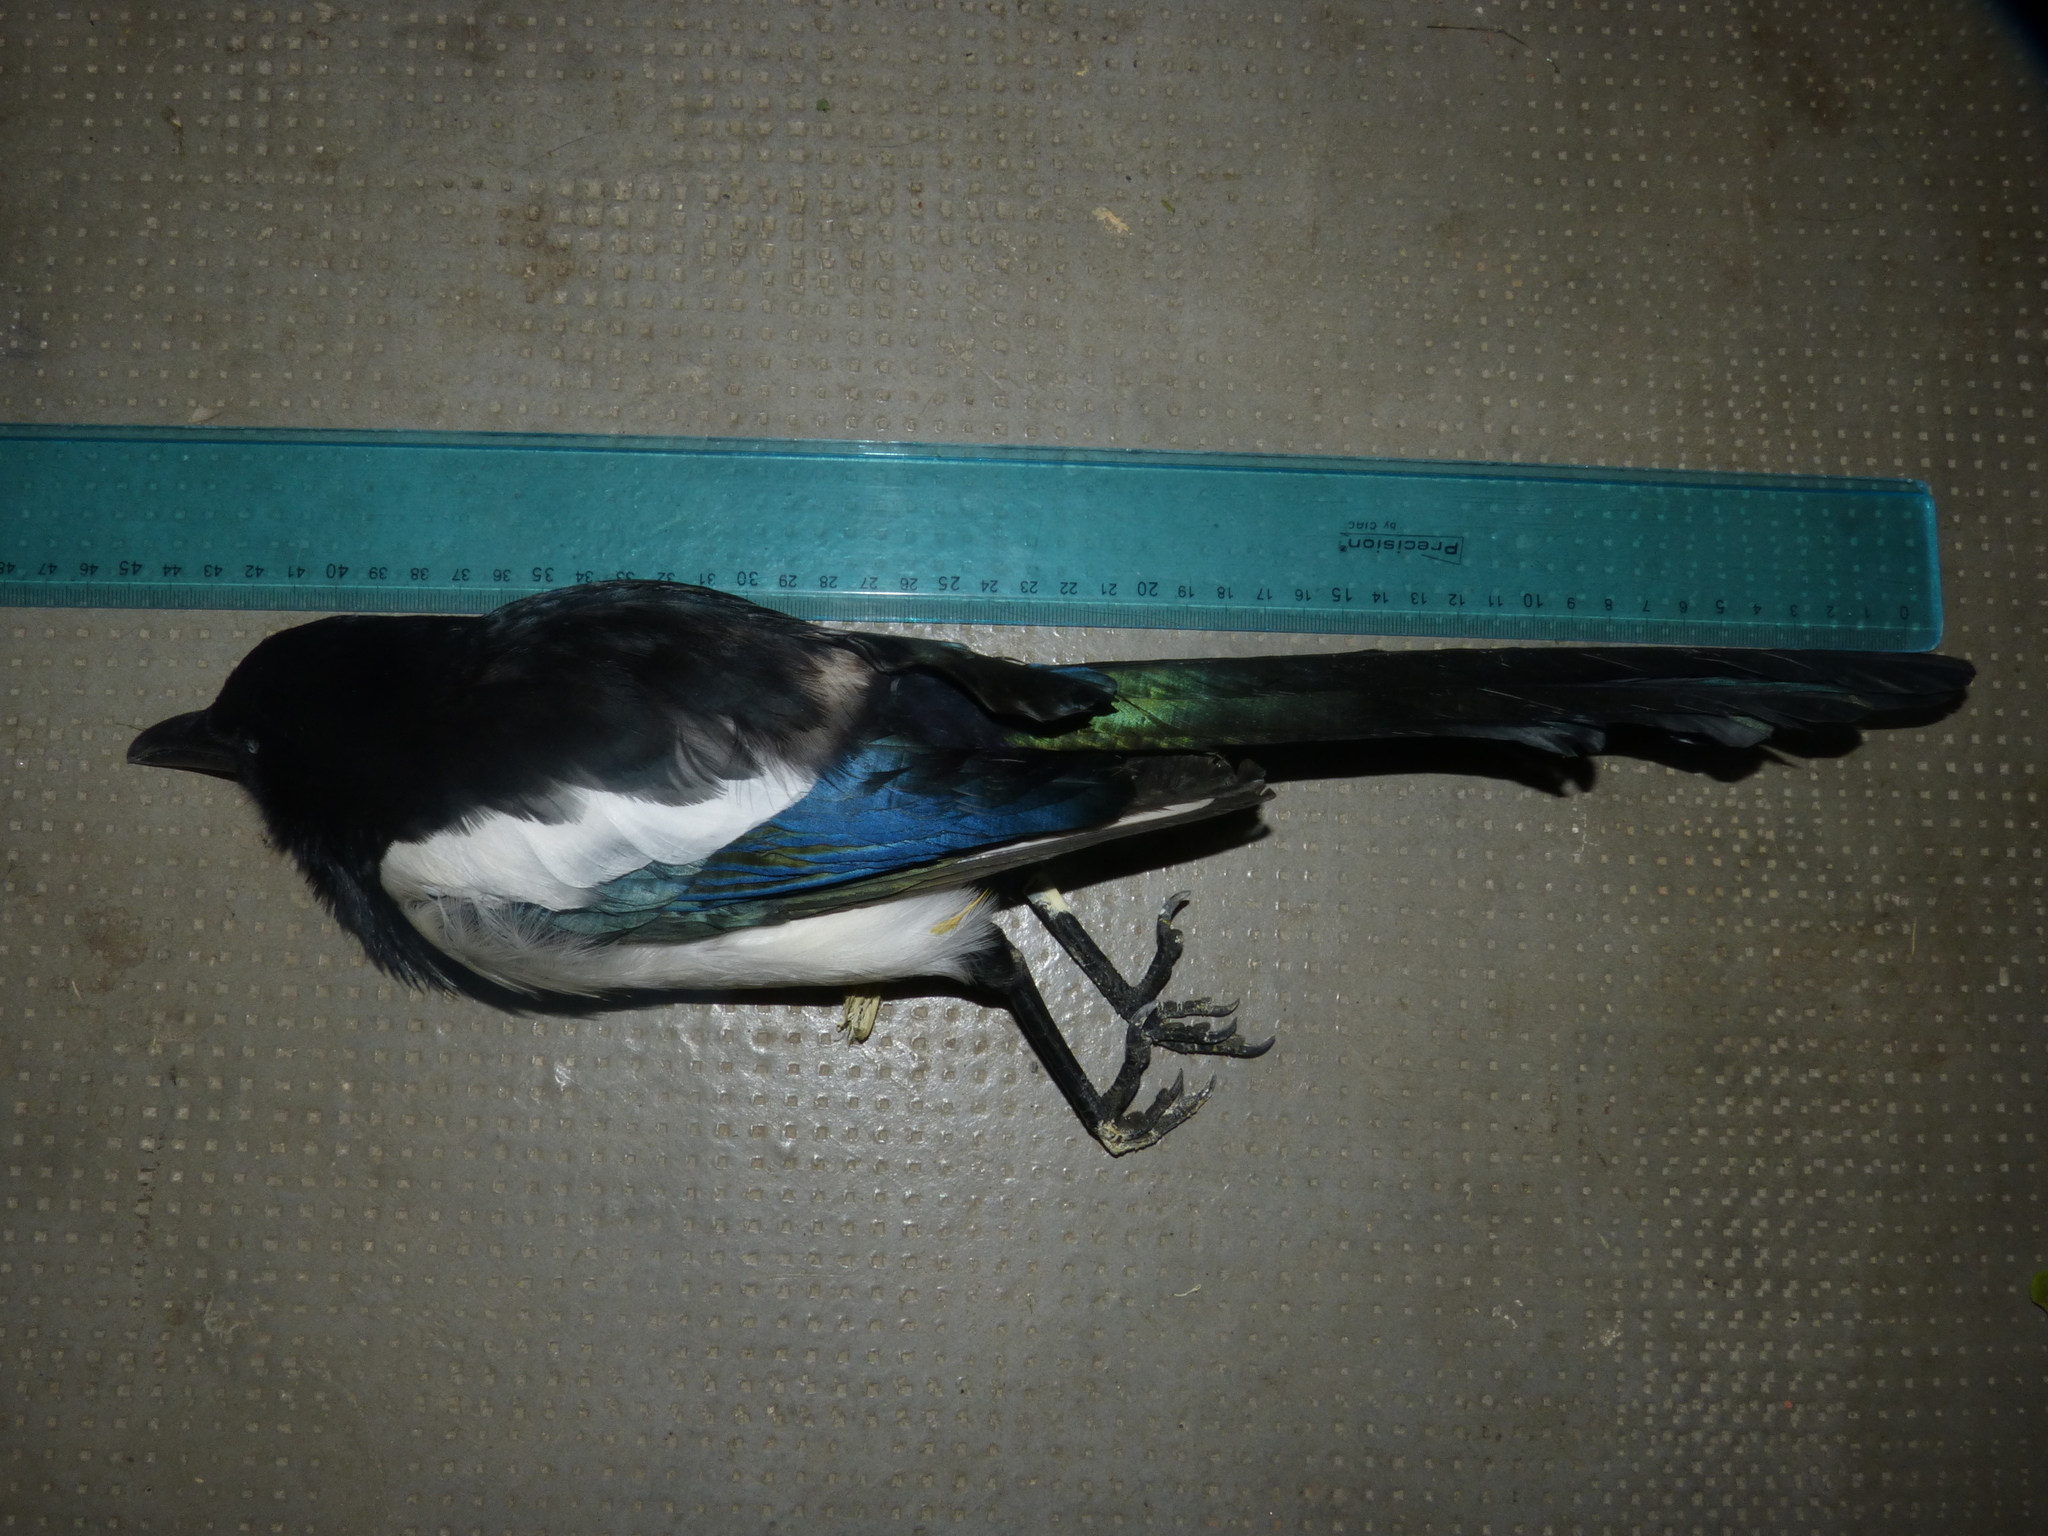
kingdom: Animalia
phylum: Chordata
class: Aves
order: Passeriformes
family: Corvidae
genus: Pica
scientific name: Pica pica
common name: Eurasian magpie
